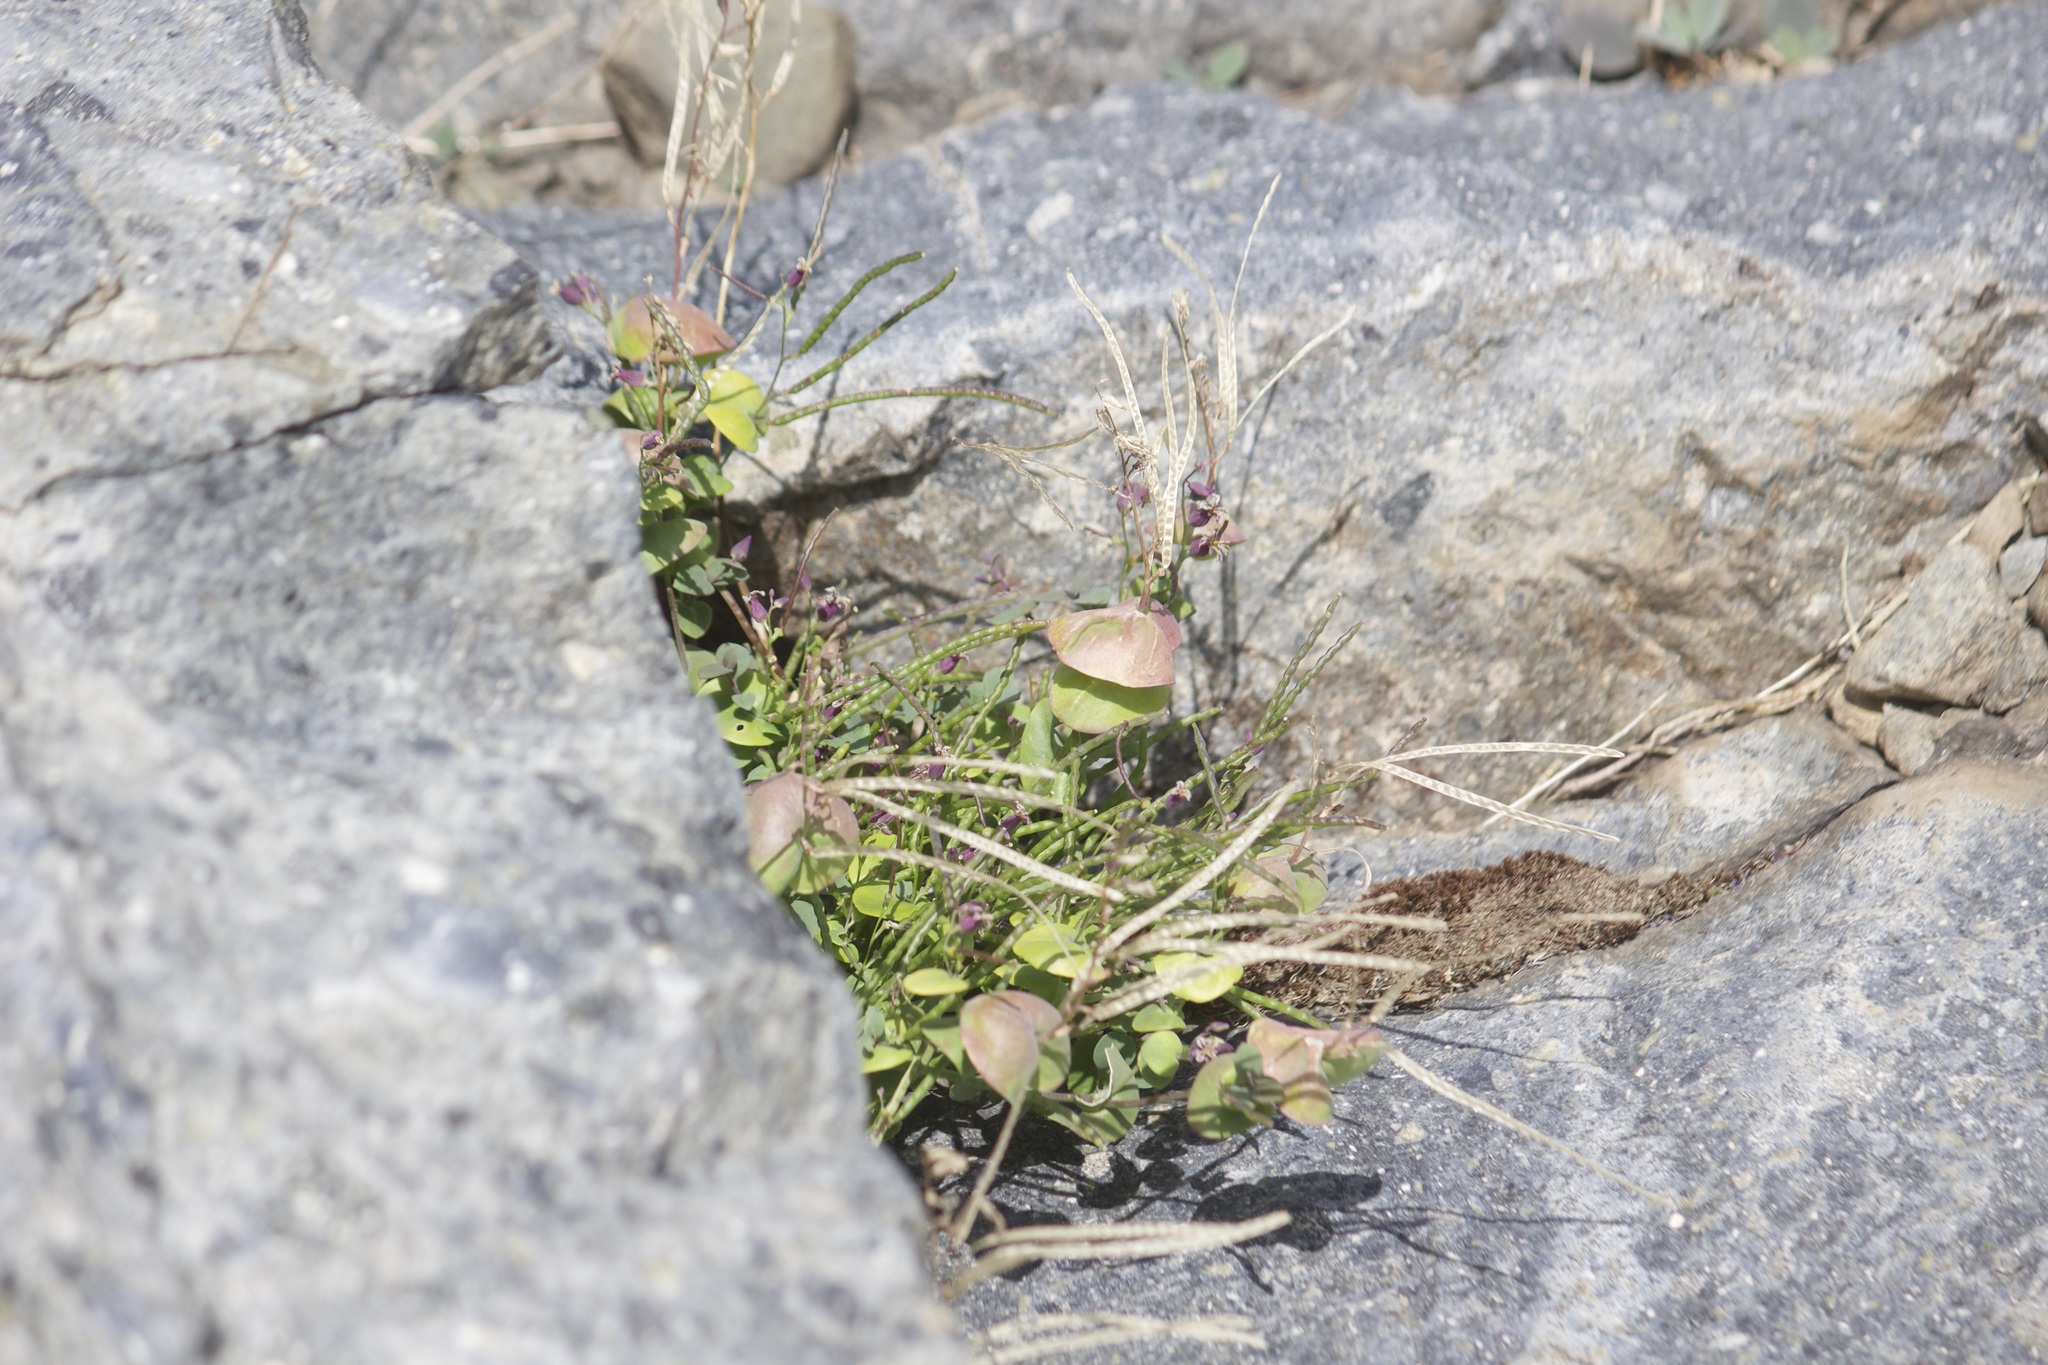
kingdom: Plantae
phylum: Tracheophyta
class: Magnoliopsida
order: Brassicales
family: Brassicaceae
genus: Streptanthus
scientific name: Streptanthus tortuosus
